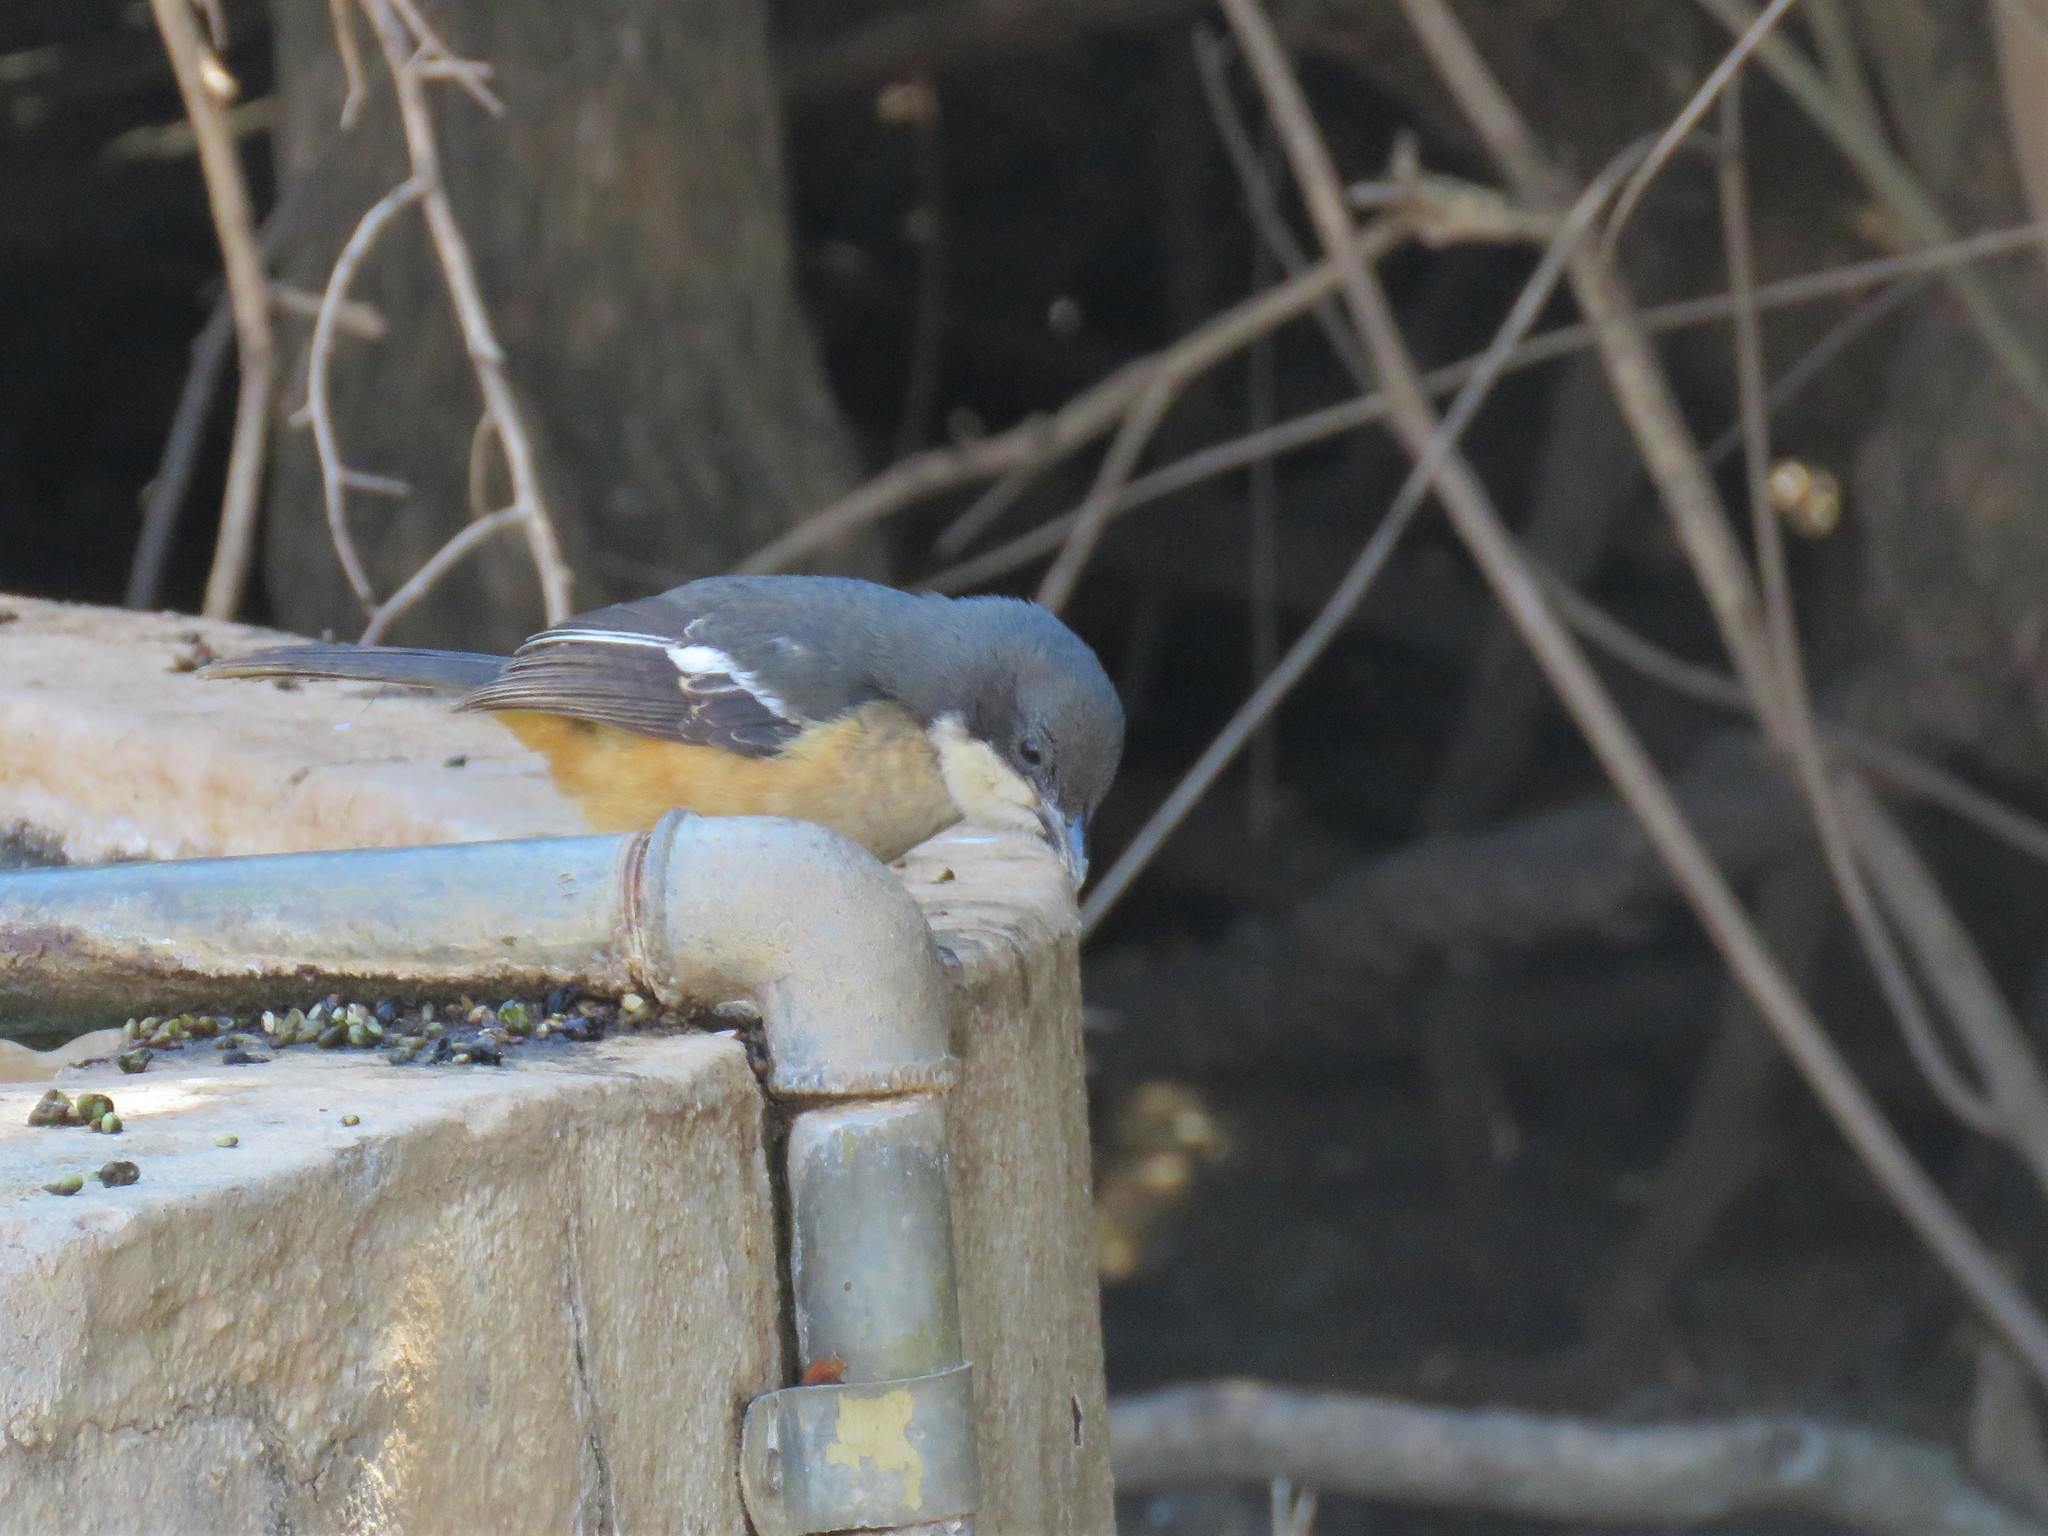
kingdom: Animalia
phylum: Chordata
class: Aves
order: Passeriformes
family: Malaconotidae
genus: Laniarius
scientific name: Laniarius ferrugineus
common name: Southern boubou
